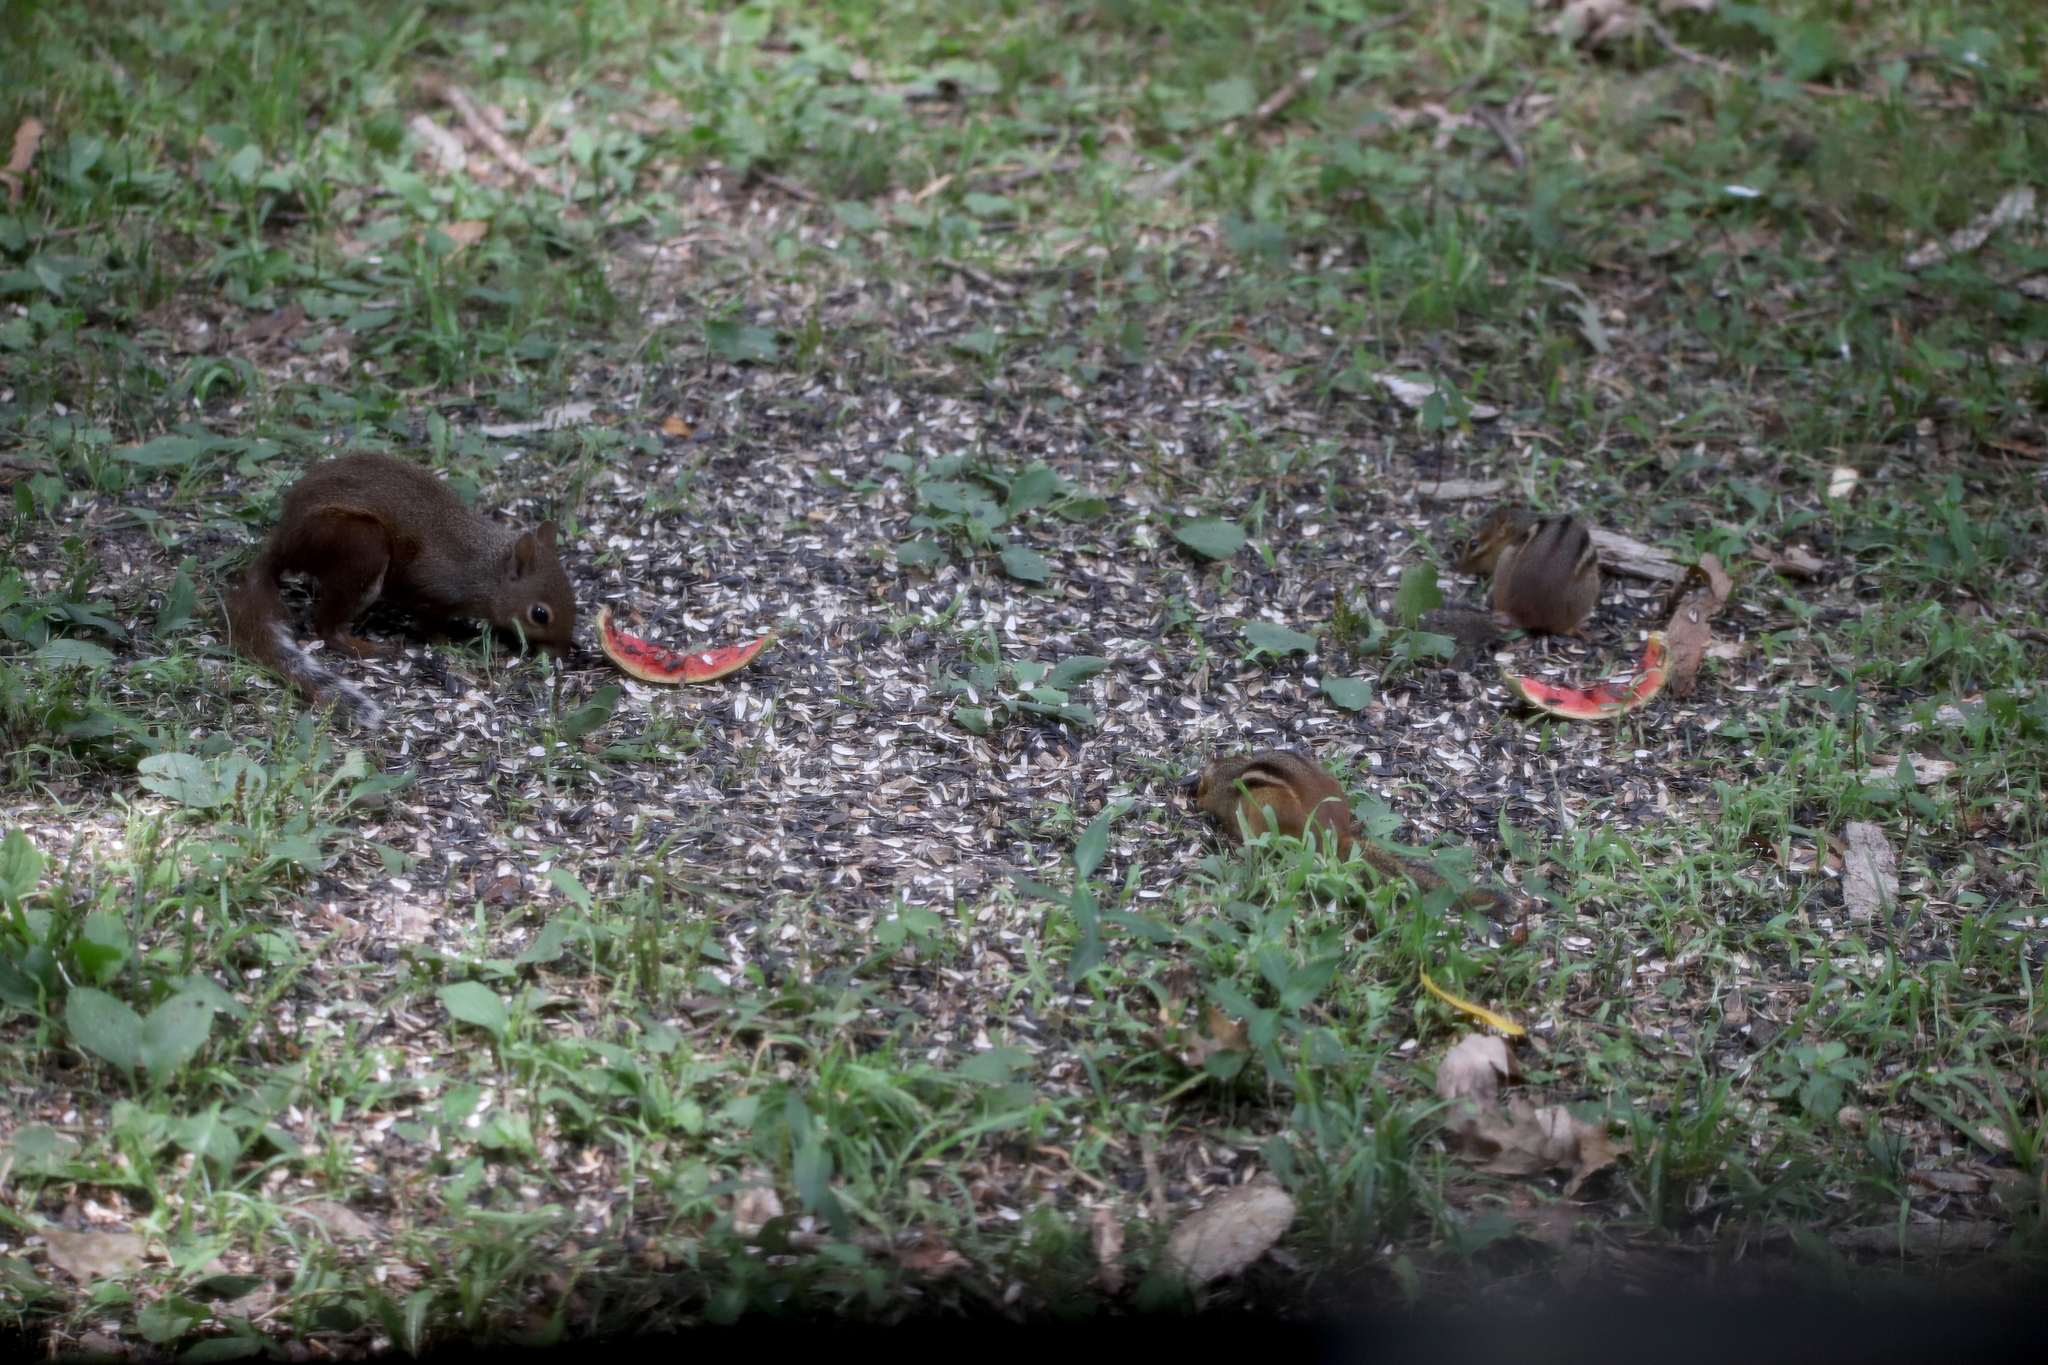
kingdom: Animalia
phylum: Chordata
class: Mammalia
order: Rodentia
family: Sciuridae
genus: Tamias
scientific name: Tamias striatus
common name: Eastern chipmunk
